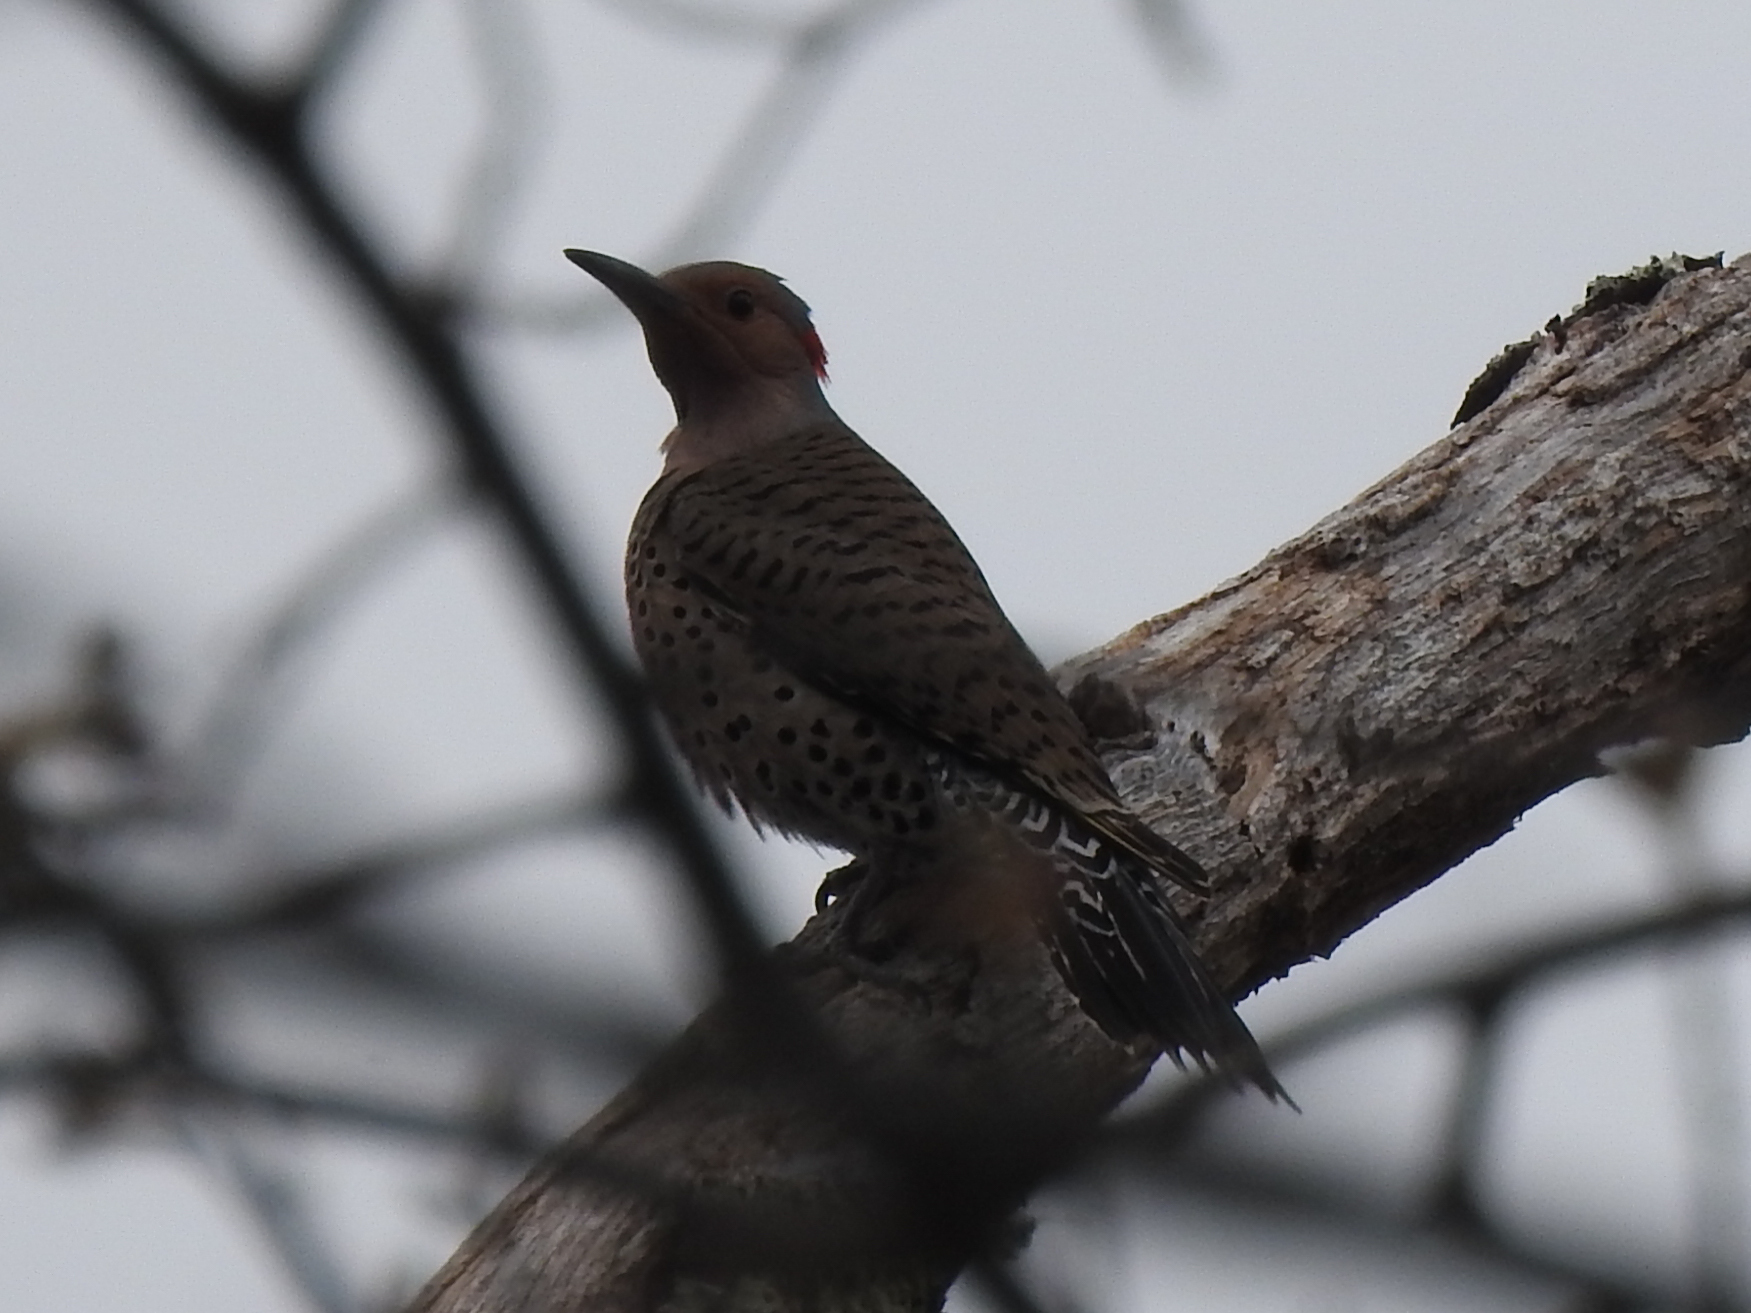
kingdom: Animalia
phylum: Chordata
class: Aves
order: Piciformes
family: Picidae
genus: Colaptes
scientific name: Colaptes auratus
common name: Northern flicker
